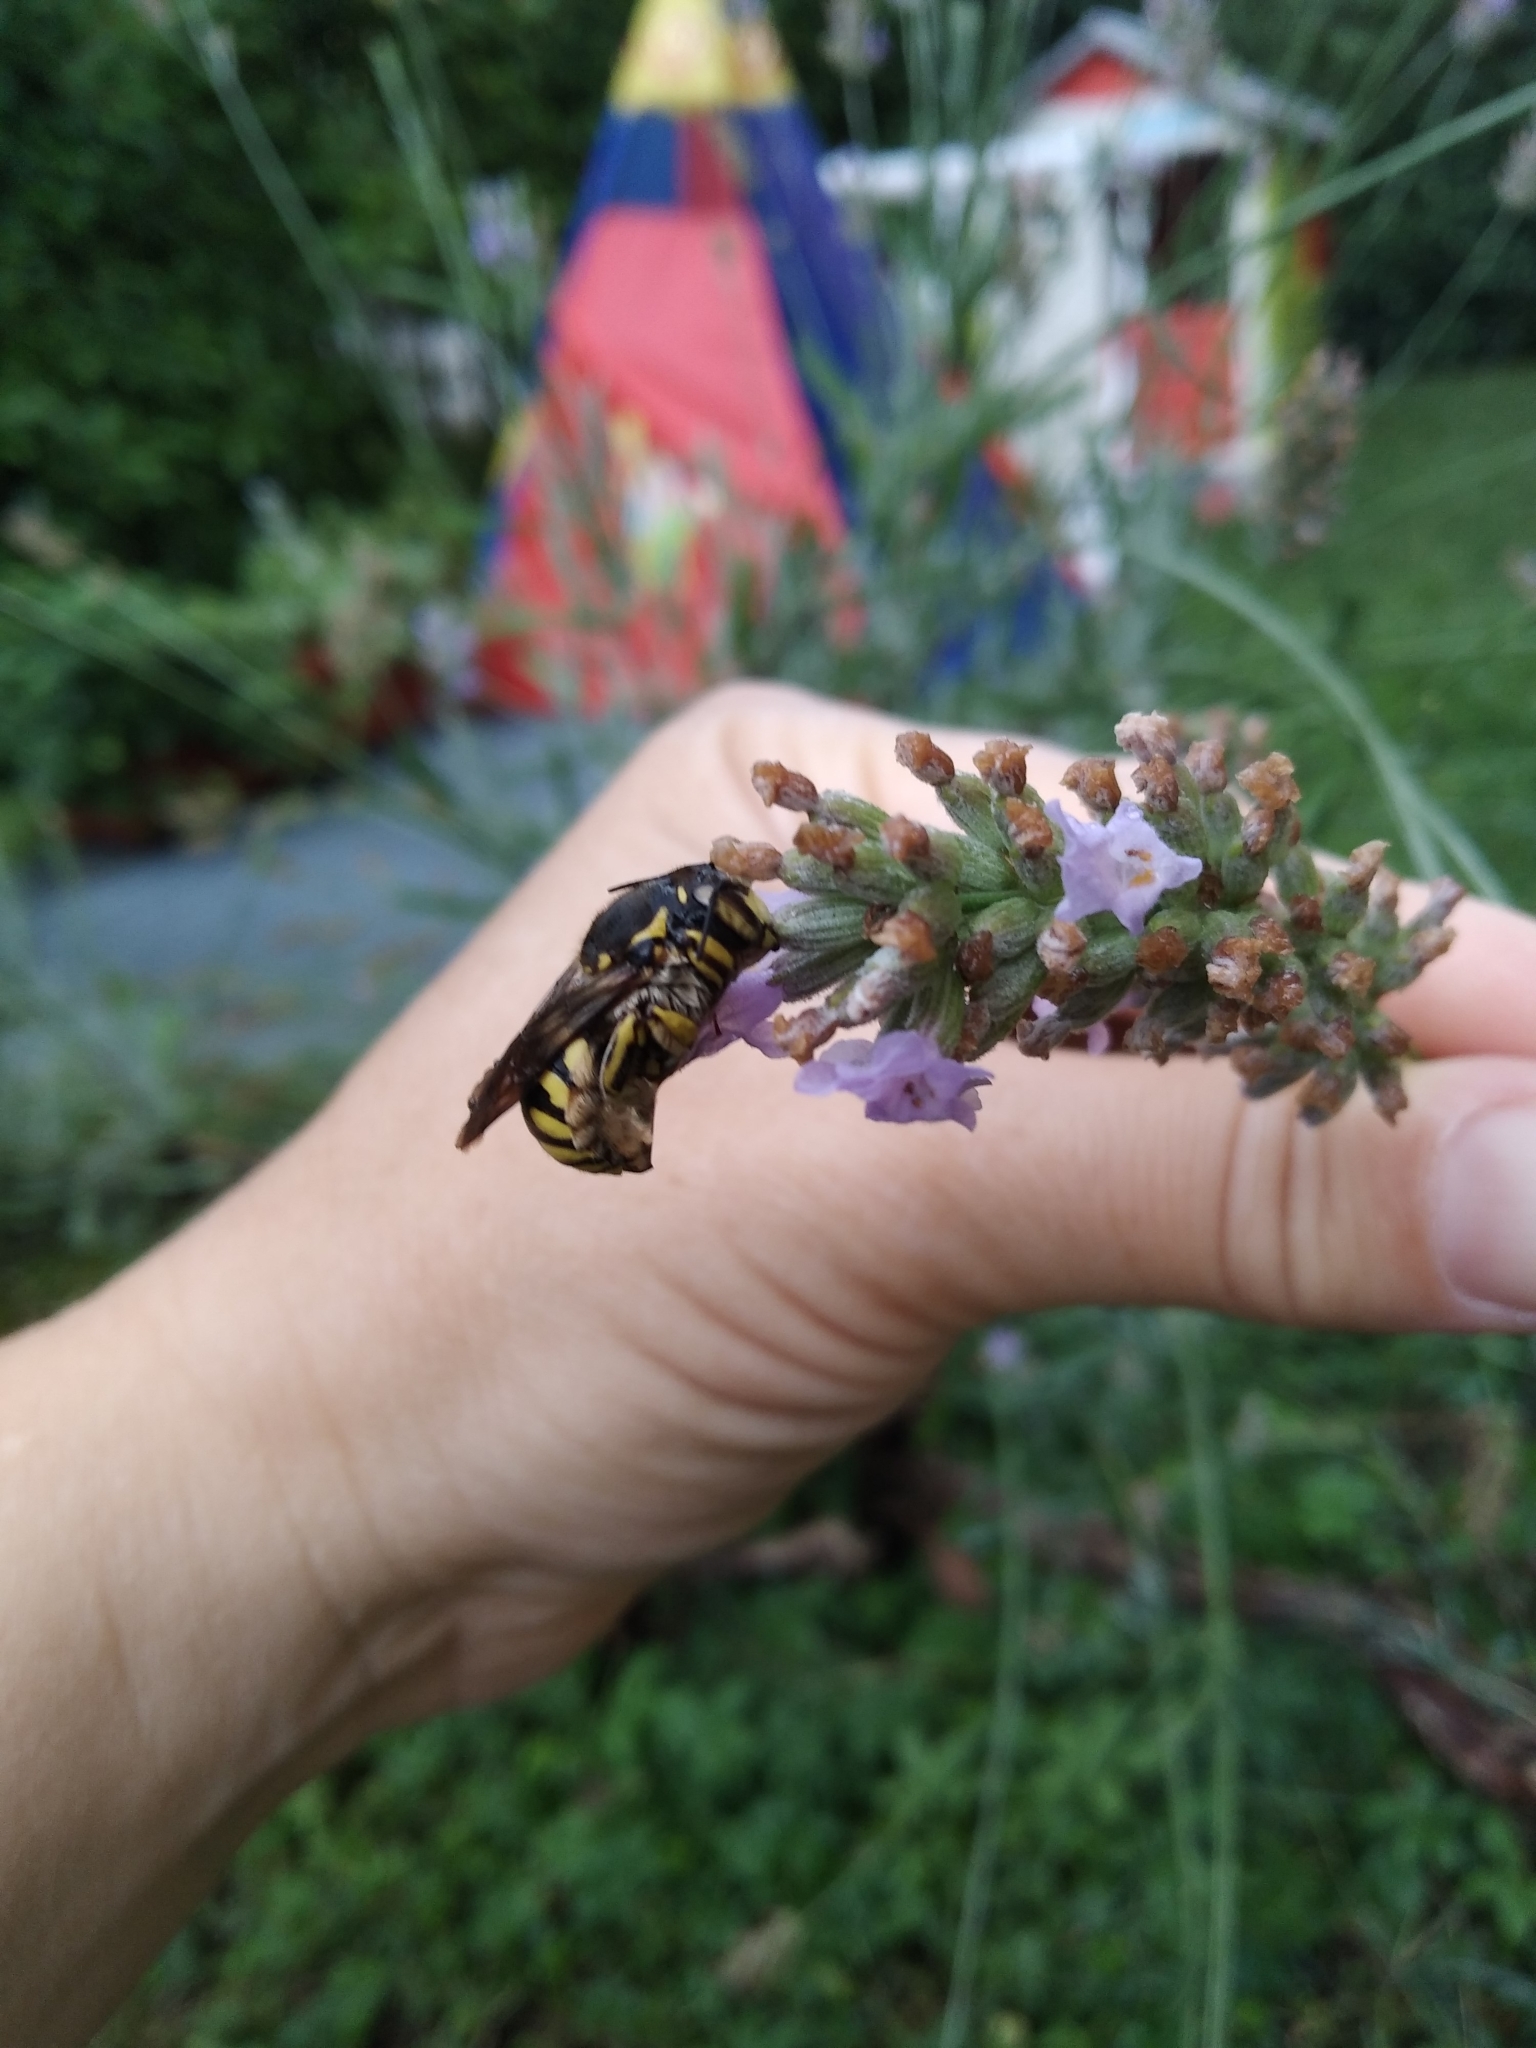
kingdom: Animalia
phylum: Arthropoda
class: Insecta
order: Hymenoptera
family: Megachilidae
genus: Anthidium
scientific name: Anthidium florentinum
